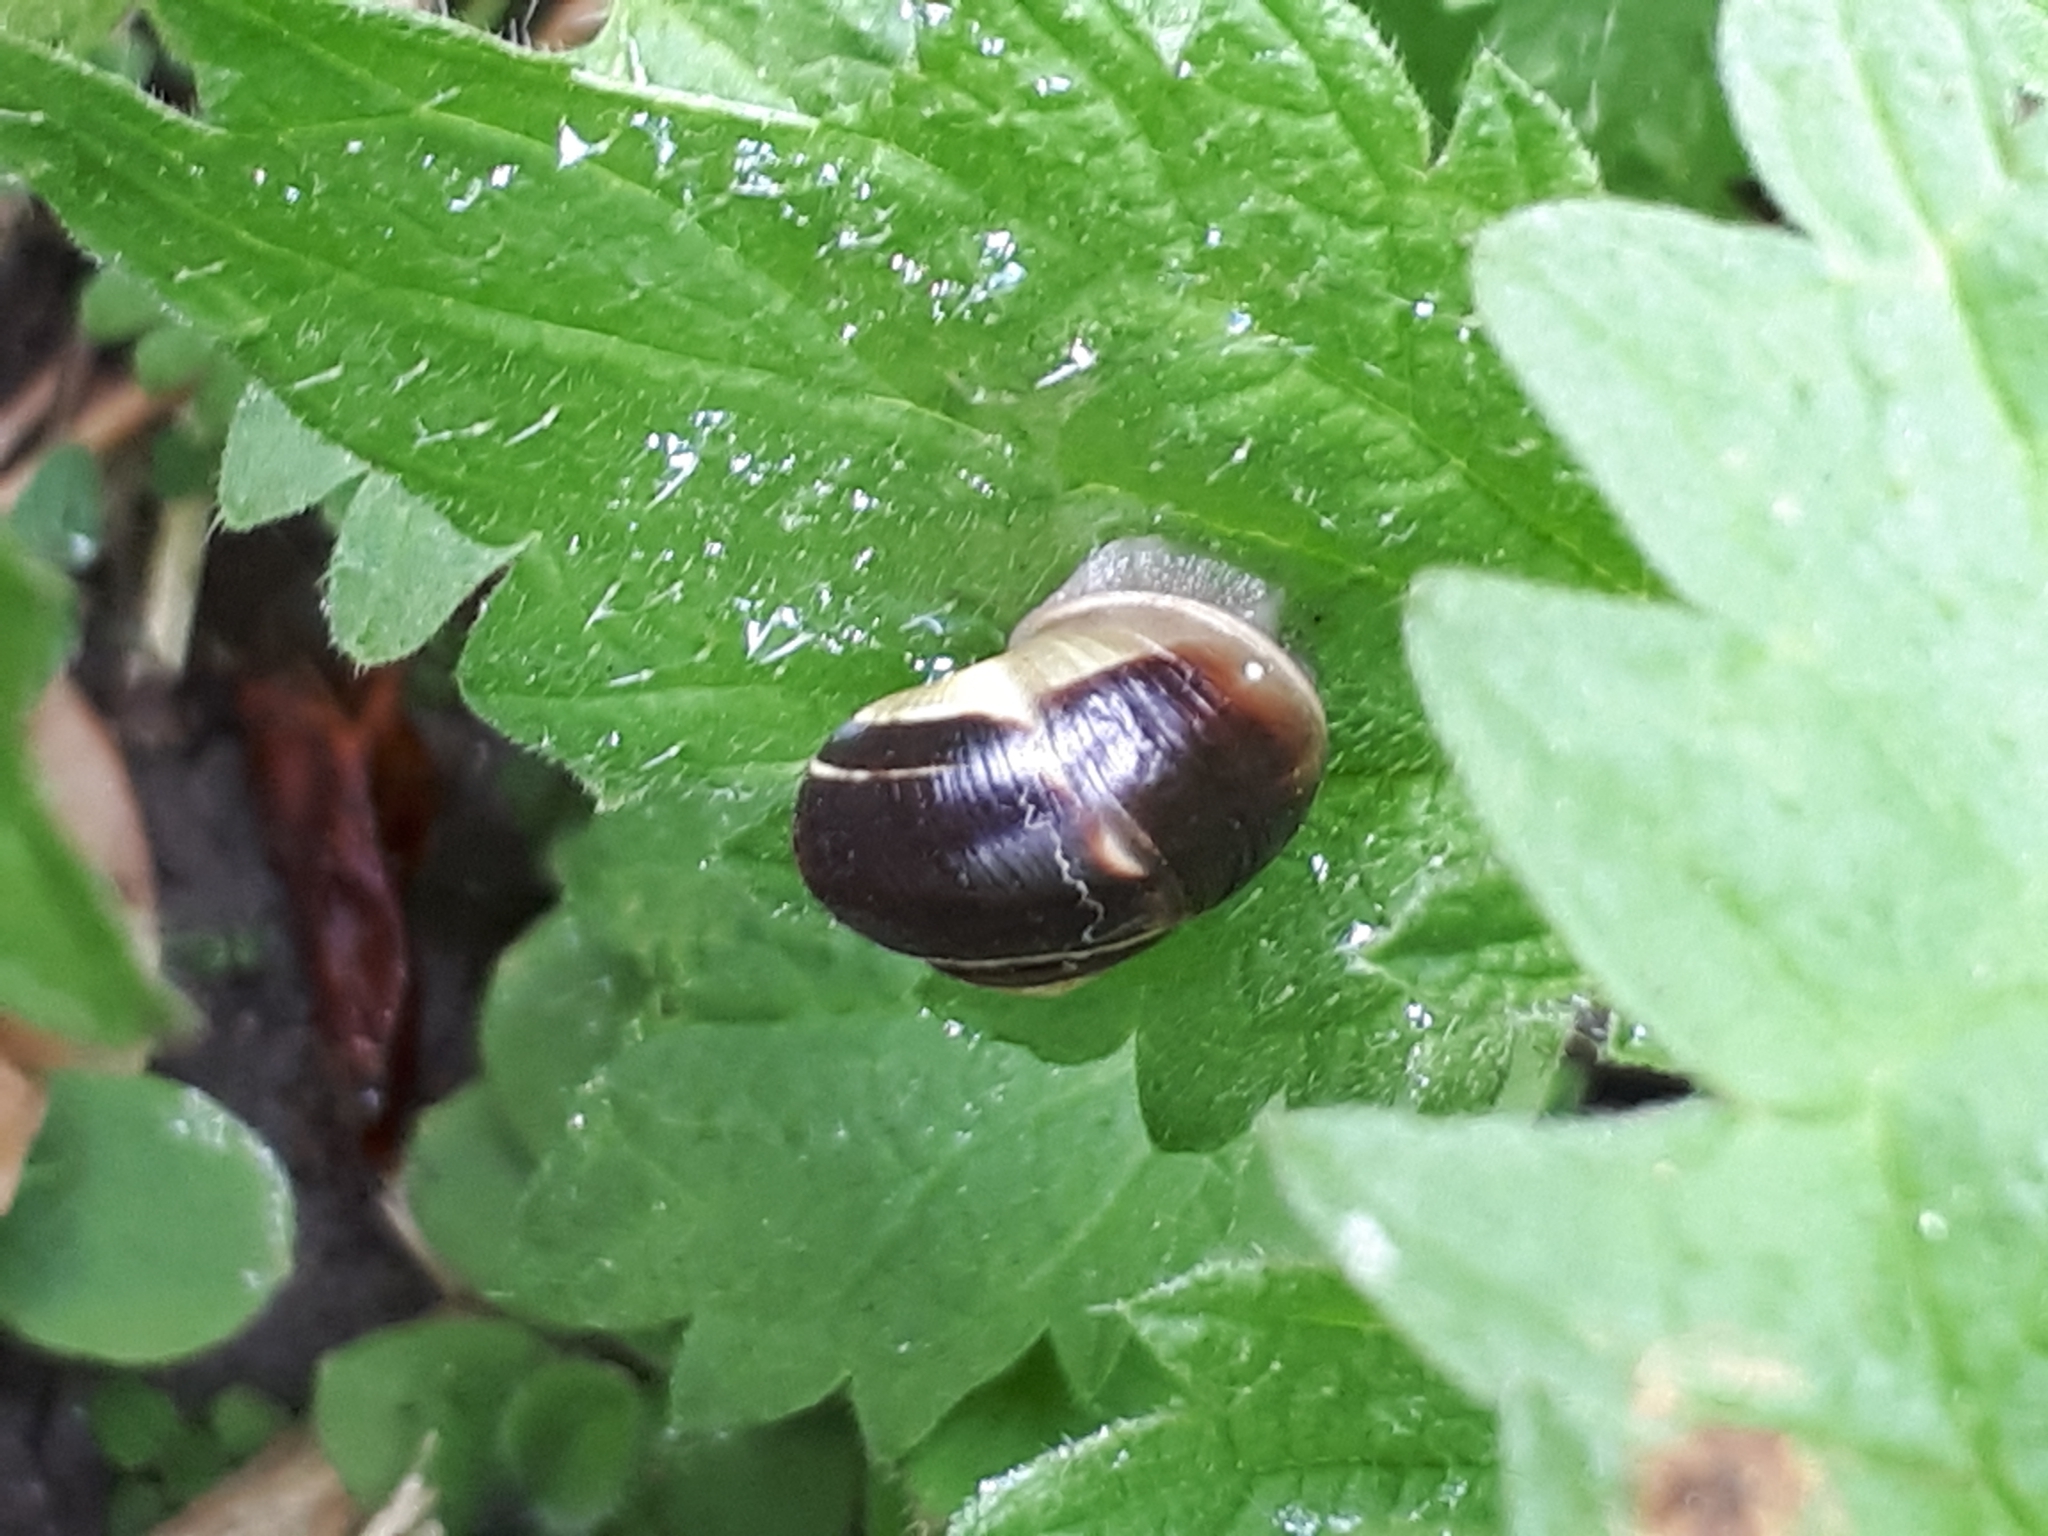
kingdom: Animalia
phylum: Mollusca
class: Gastropoda
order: Stylommatophora
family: Helicidae
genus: Cepaea
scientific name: Cepaea hortensis
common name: White-lip gardensnail
